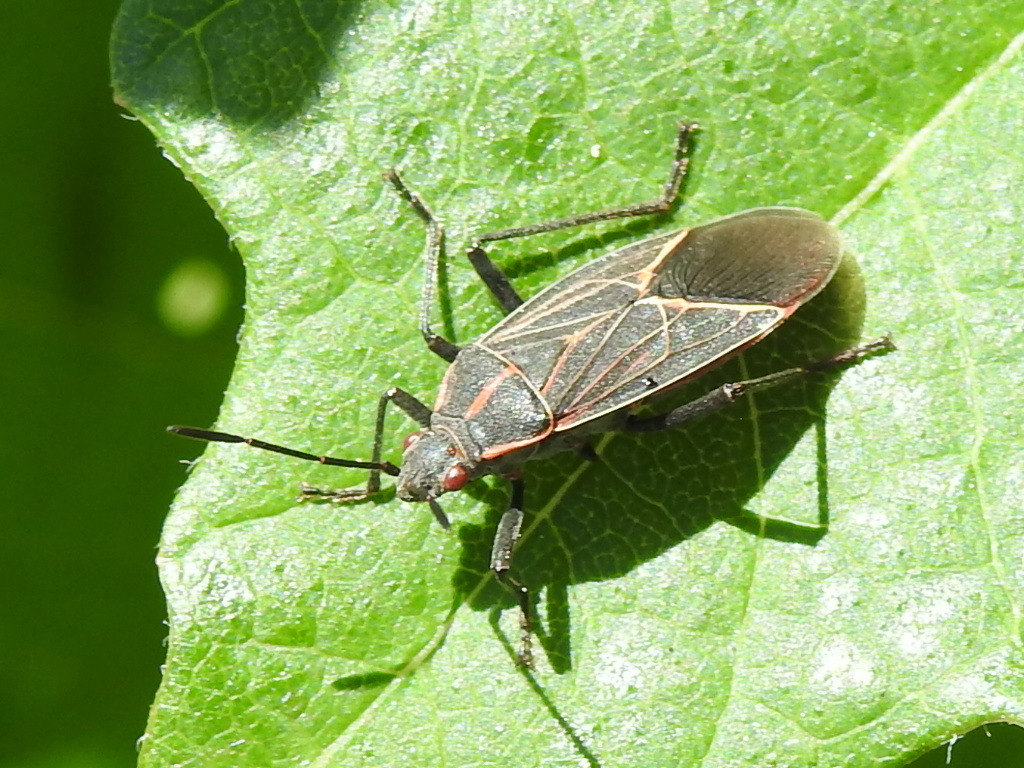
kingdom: Animalia
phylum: Arthropoda
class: Insecta
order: Hemiptera
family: Rhopalidae
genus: Boisea
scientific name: Boisea rubrolineata
